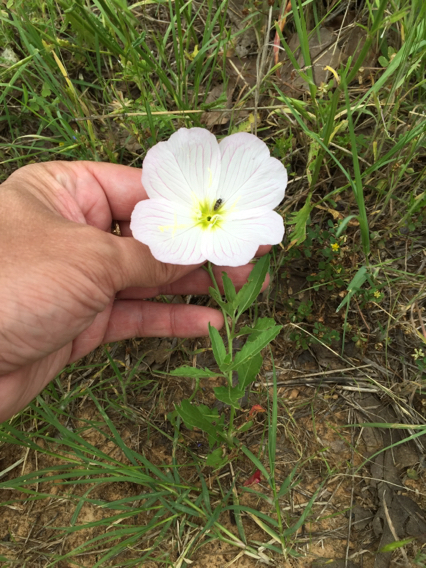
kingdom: Plantae
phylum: Tracheophyta
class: Magnoliopsida
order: Myrtales
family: Onagraceae
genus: Oenothera
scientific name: Oenothera speciosa
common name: White evening-primrose
